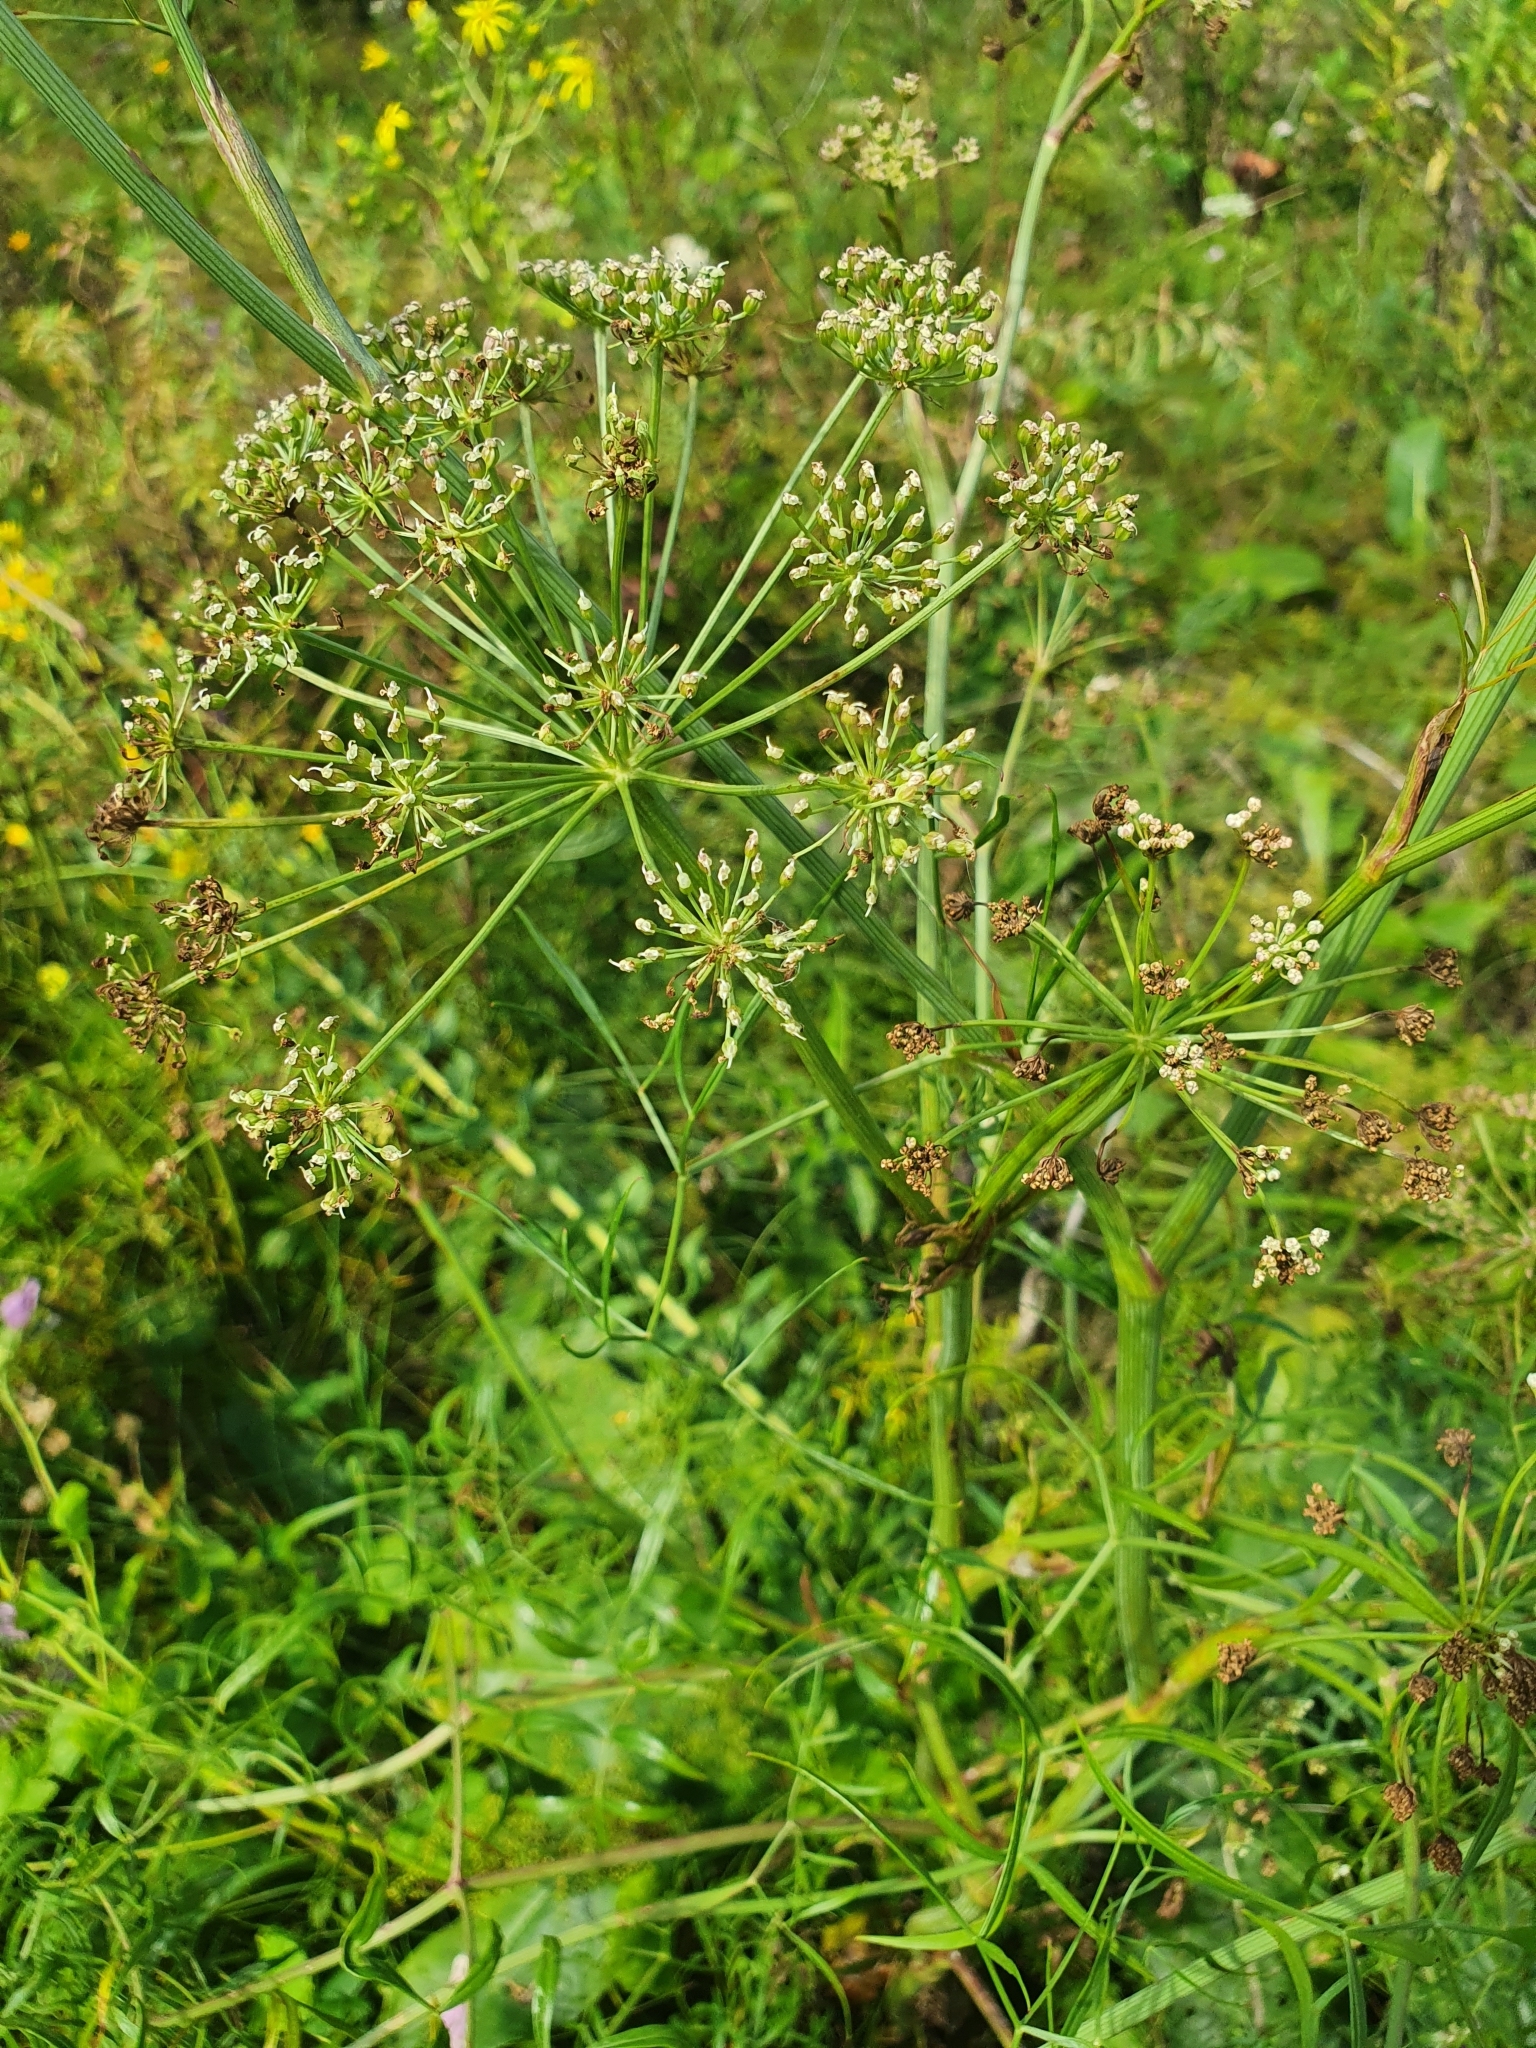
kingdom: Plantae
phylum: Tracheophyta
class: Magnoliopsida
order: Apiales
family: Apiaceae
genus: Cenolophium
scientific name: Cenolophium fischeri
